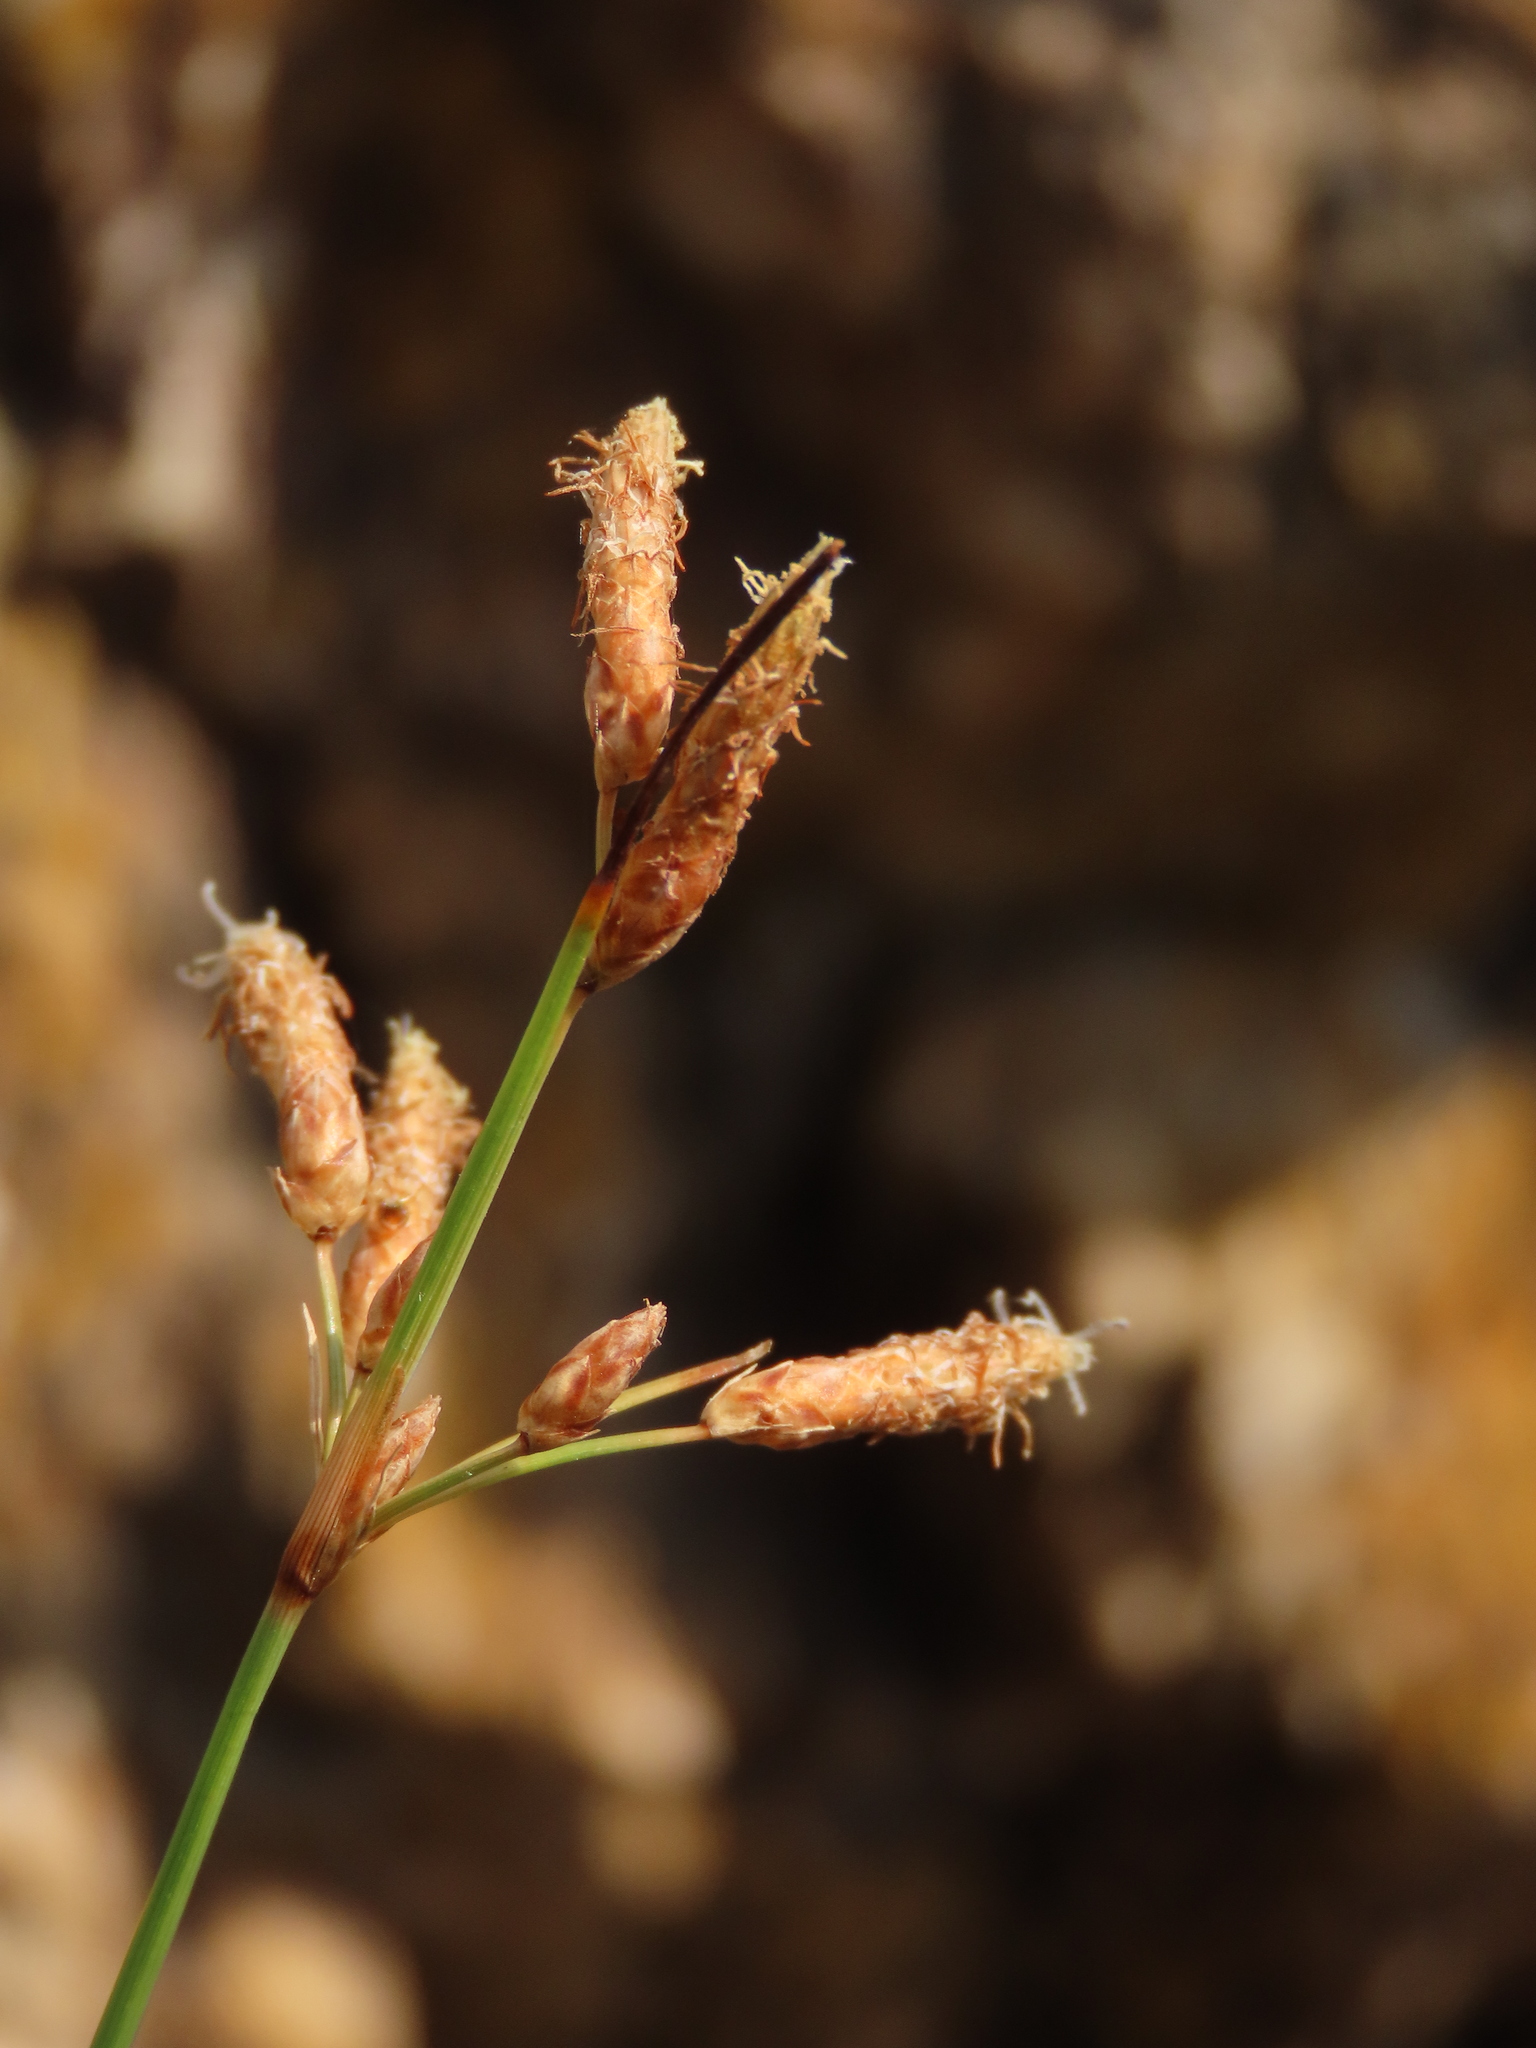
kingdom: Plantae
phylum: Tracheophyta
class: Liliopsida
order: Poales
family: Cyperaceae
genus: Fimbristylis
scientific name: Fimbristylis sieboldii
